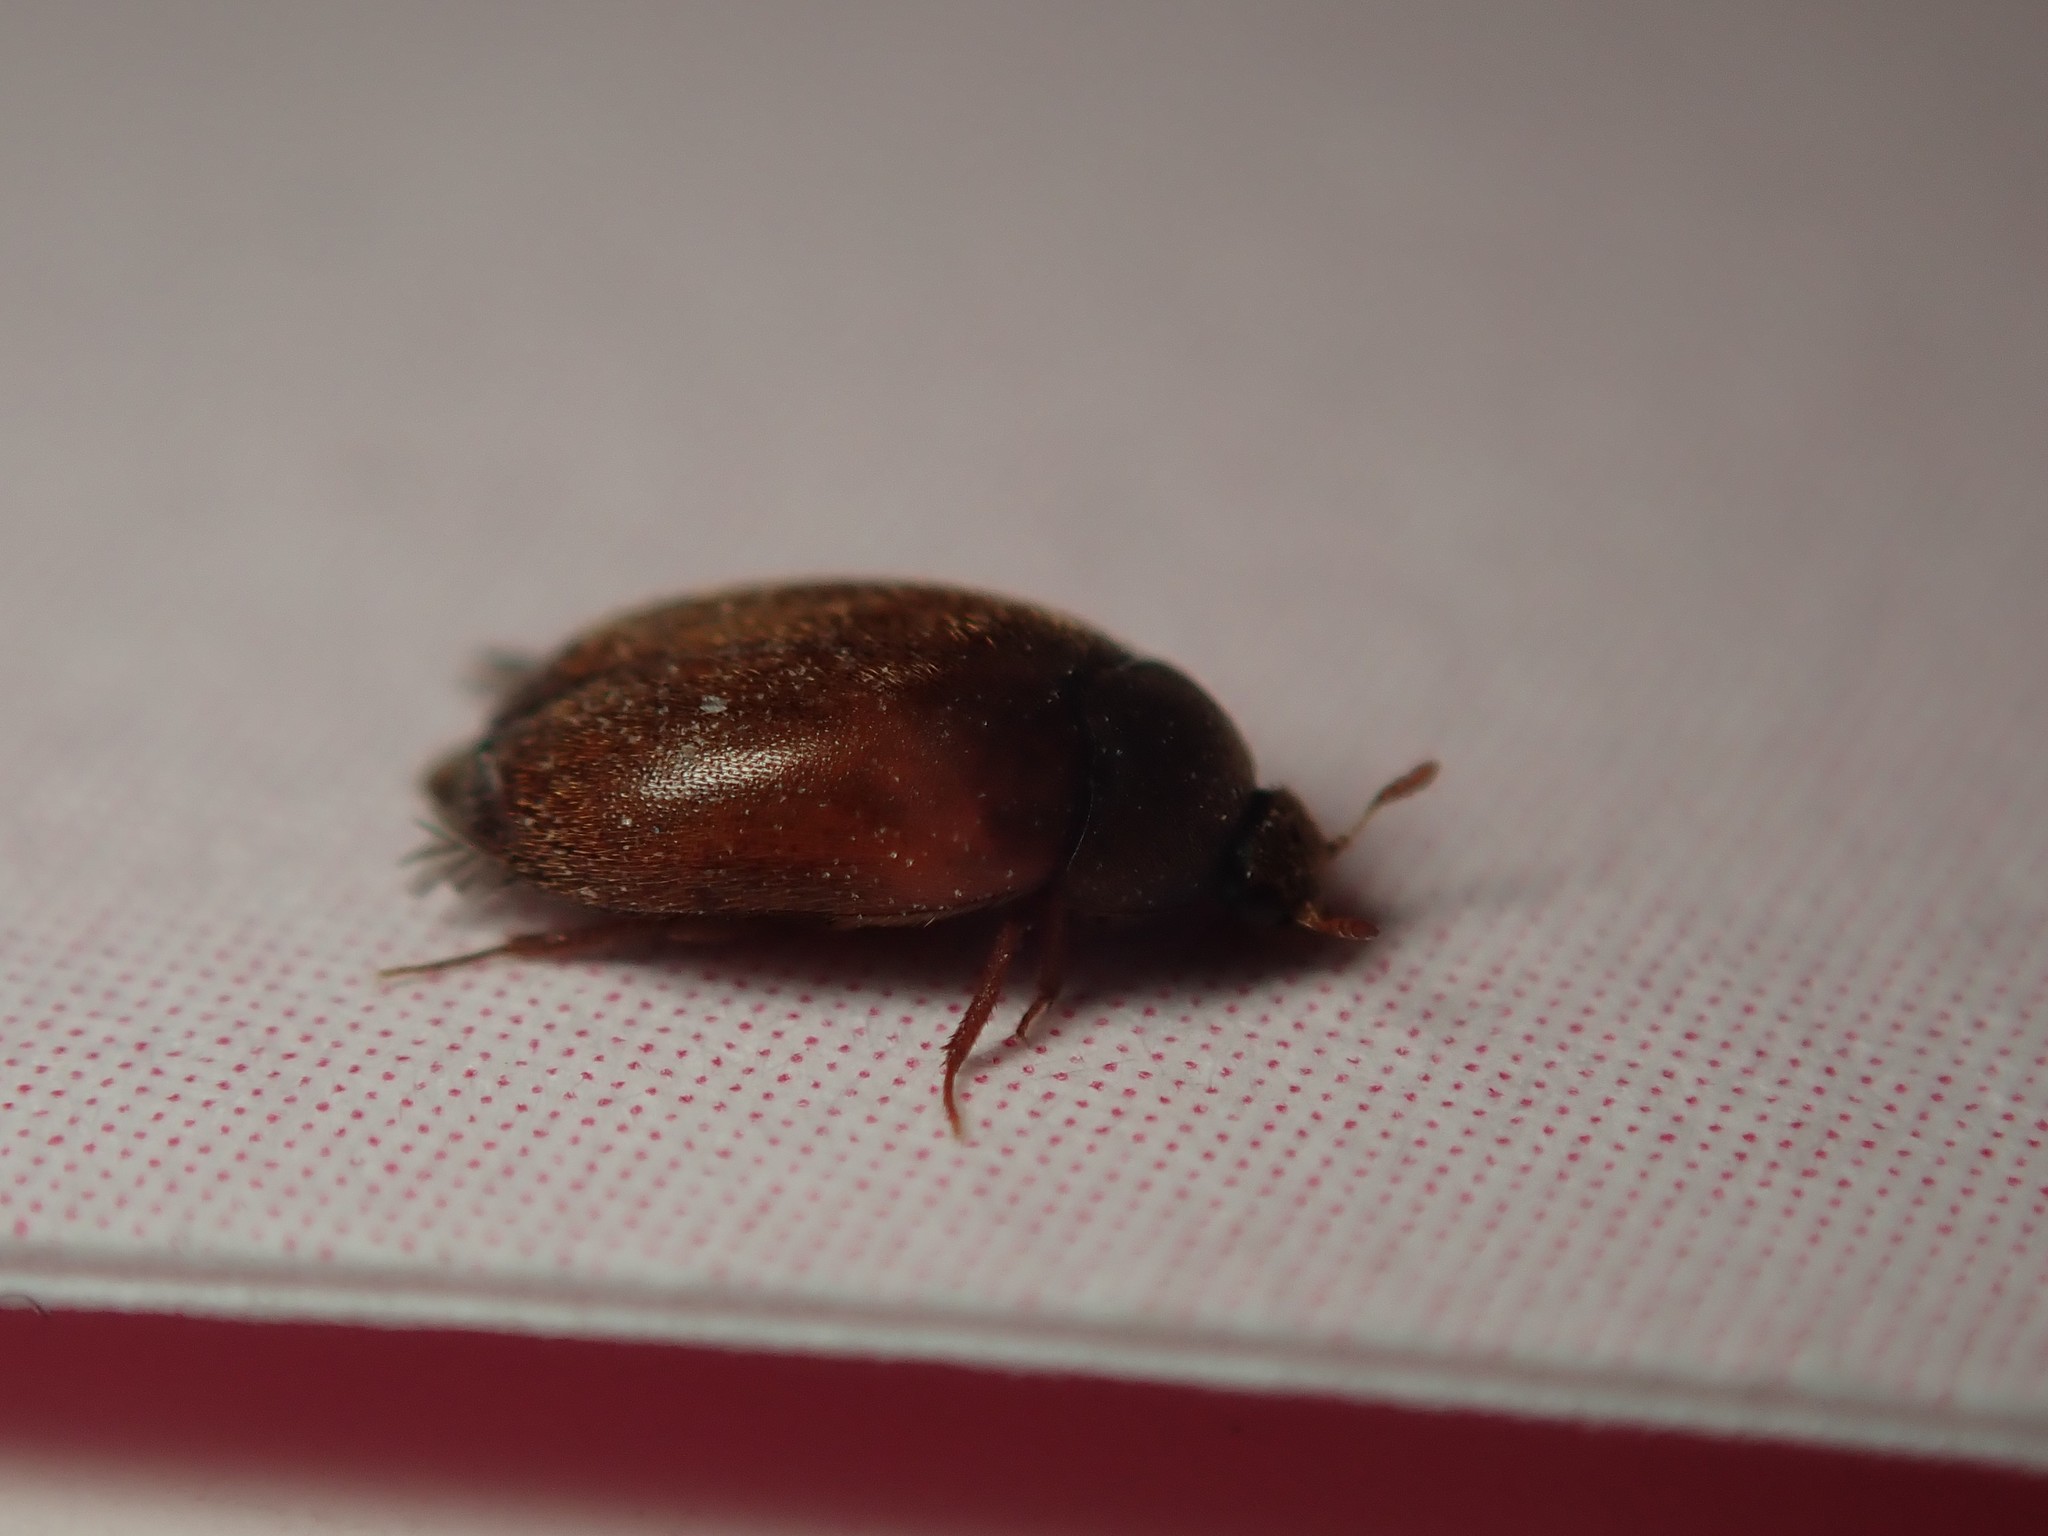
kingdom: Animalia
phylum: Arthropoda
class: Insecta
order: Coleoptera
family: Dermestidae
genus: Attagenus
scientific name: Attagenus smirnovi
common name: Brown carpet beetle
